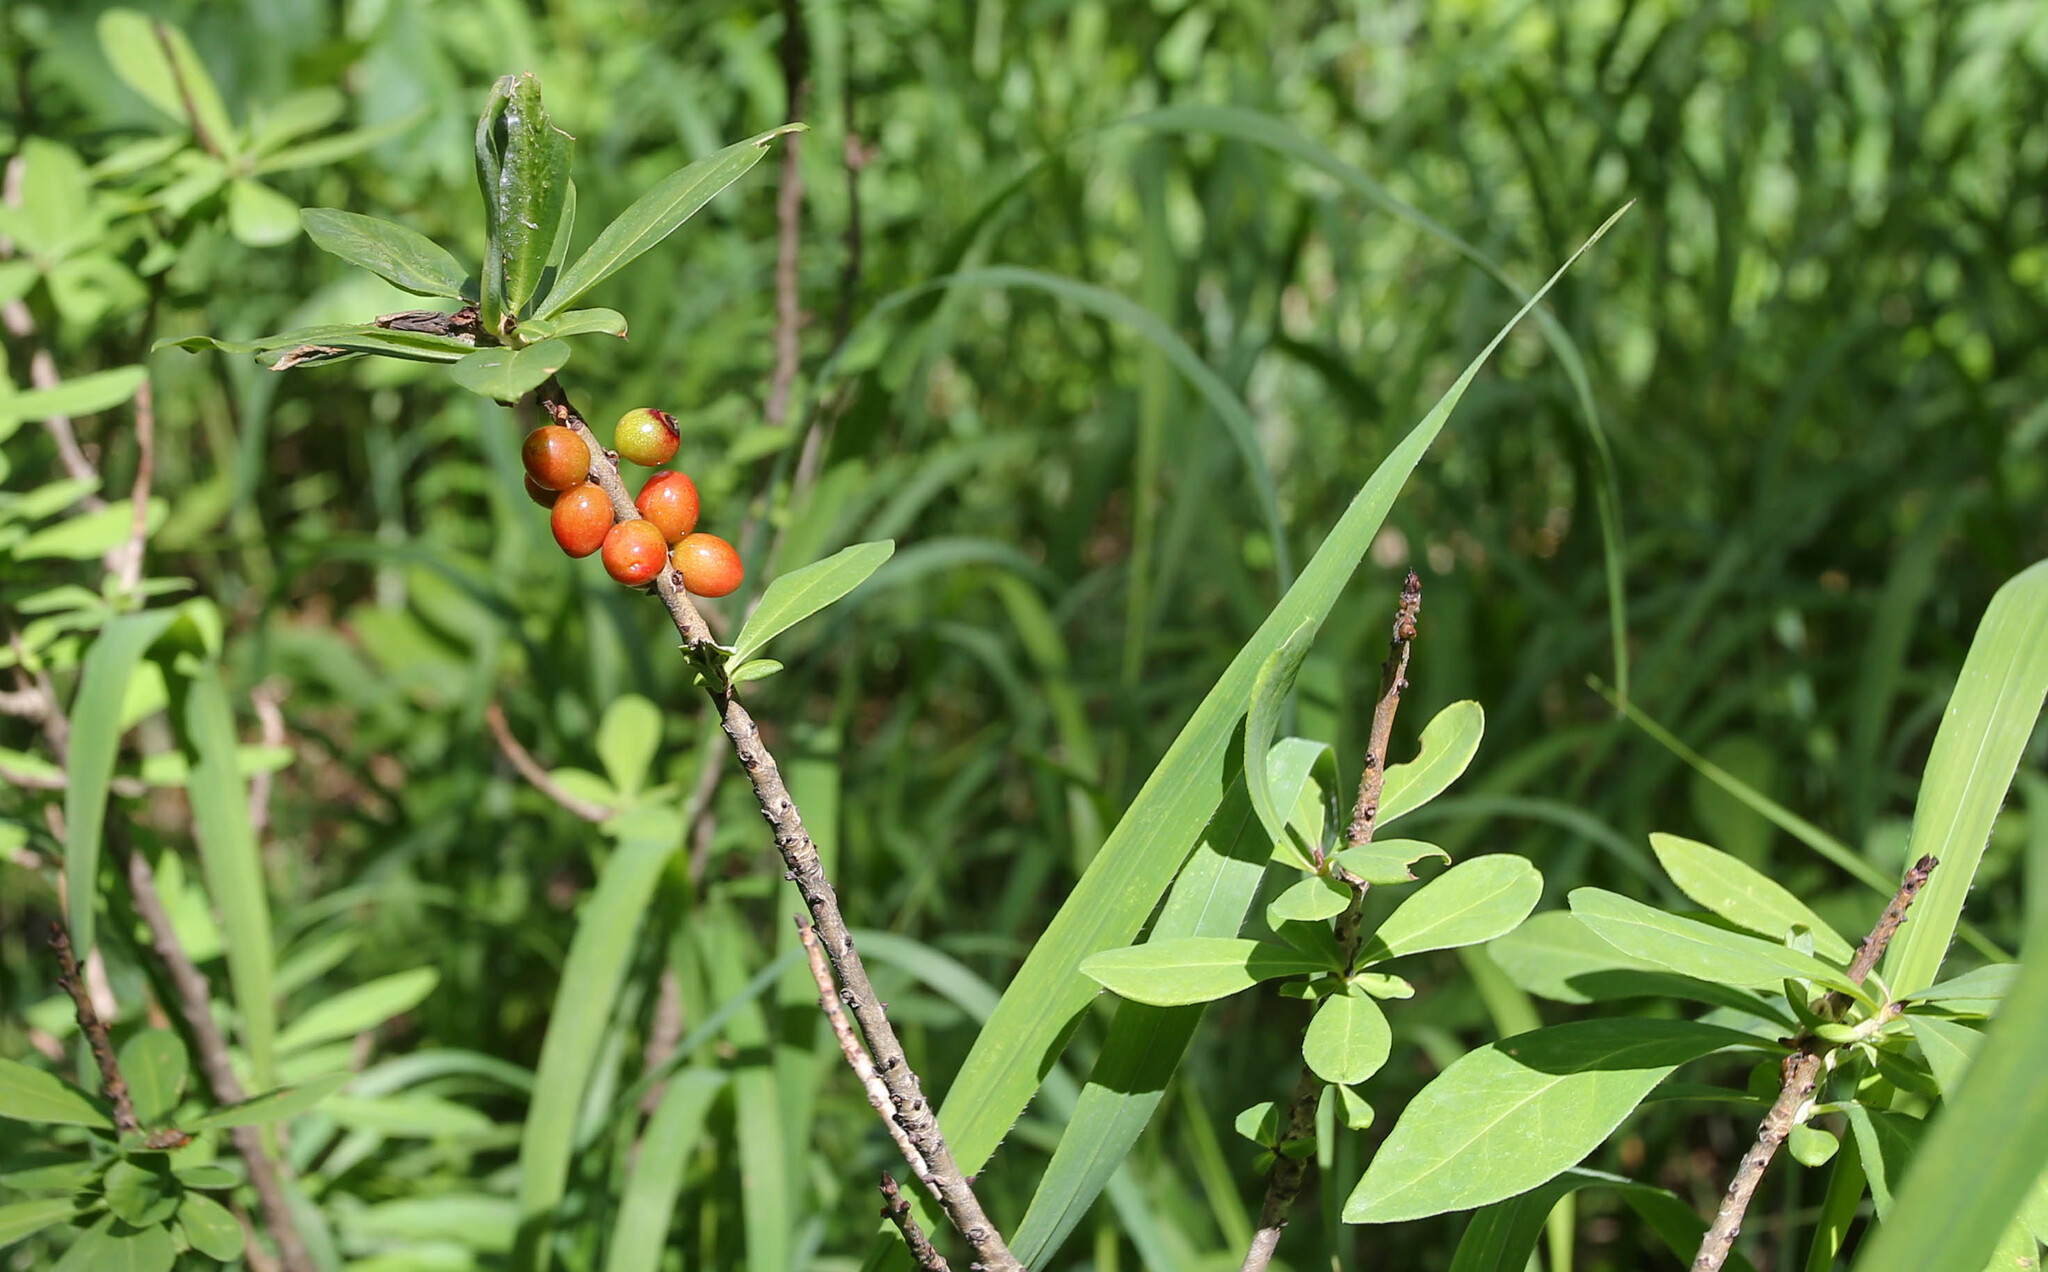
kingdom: Plantae
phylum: Tracheophyta
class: Magnoliopsida
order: Malvales
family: Thymelaeaceae
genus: Daphne
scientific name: Daphne mezereum
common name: Mezereon
